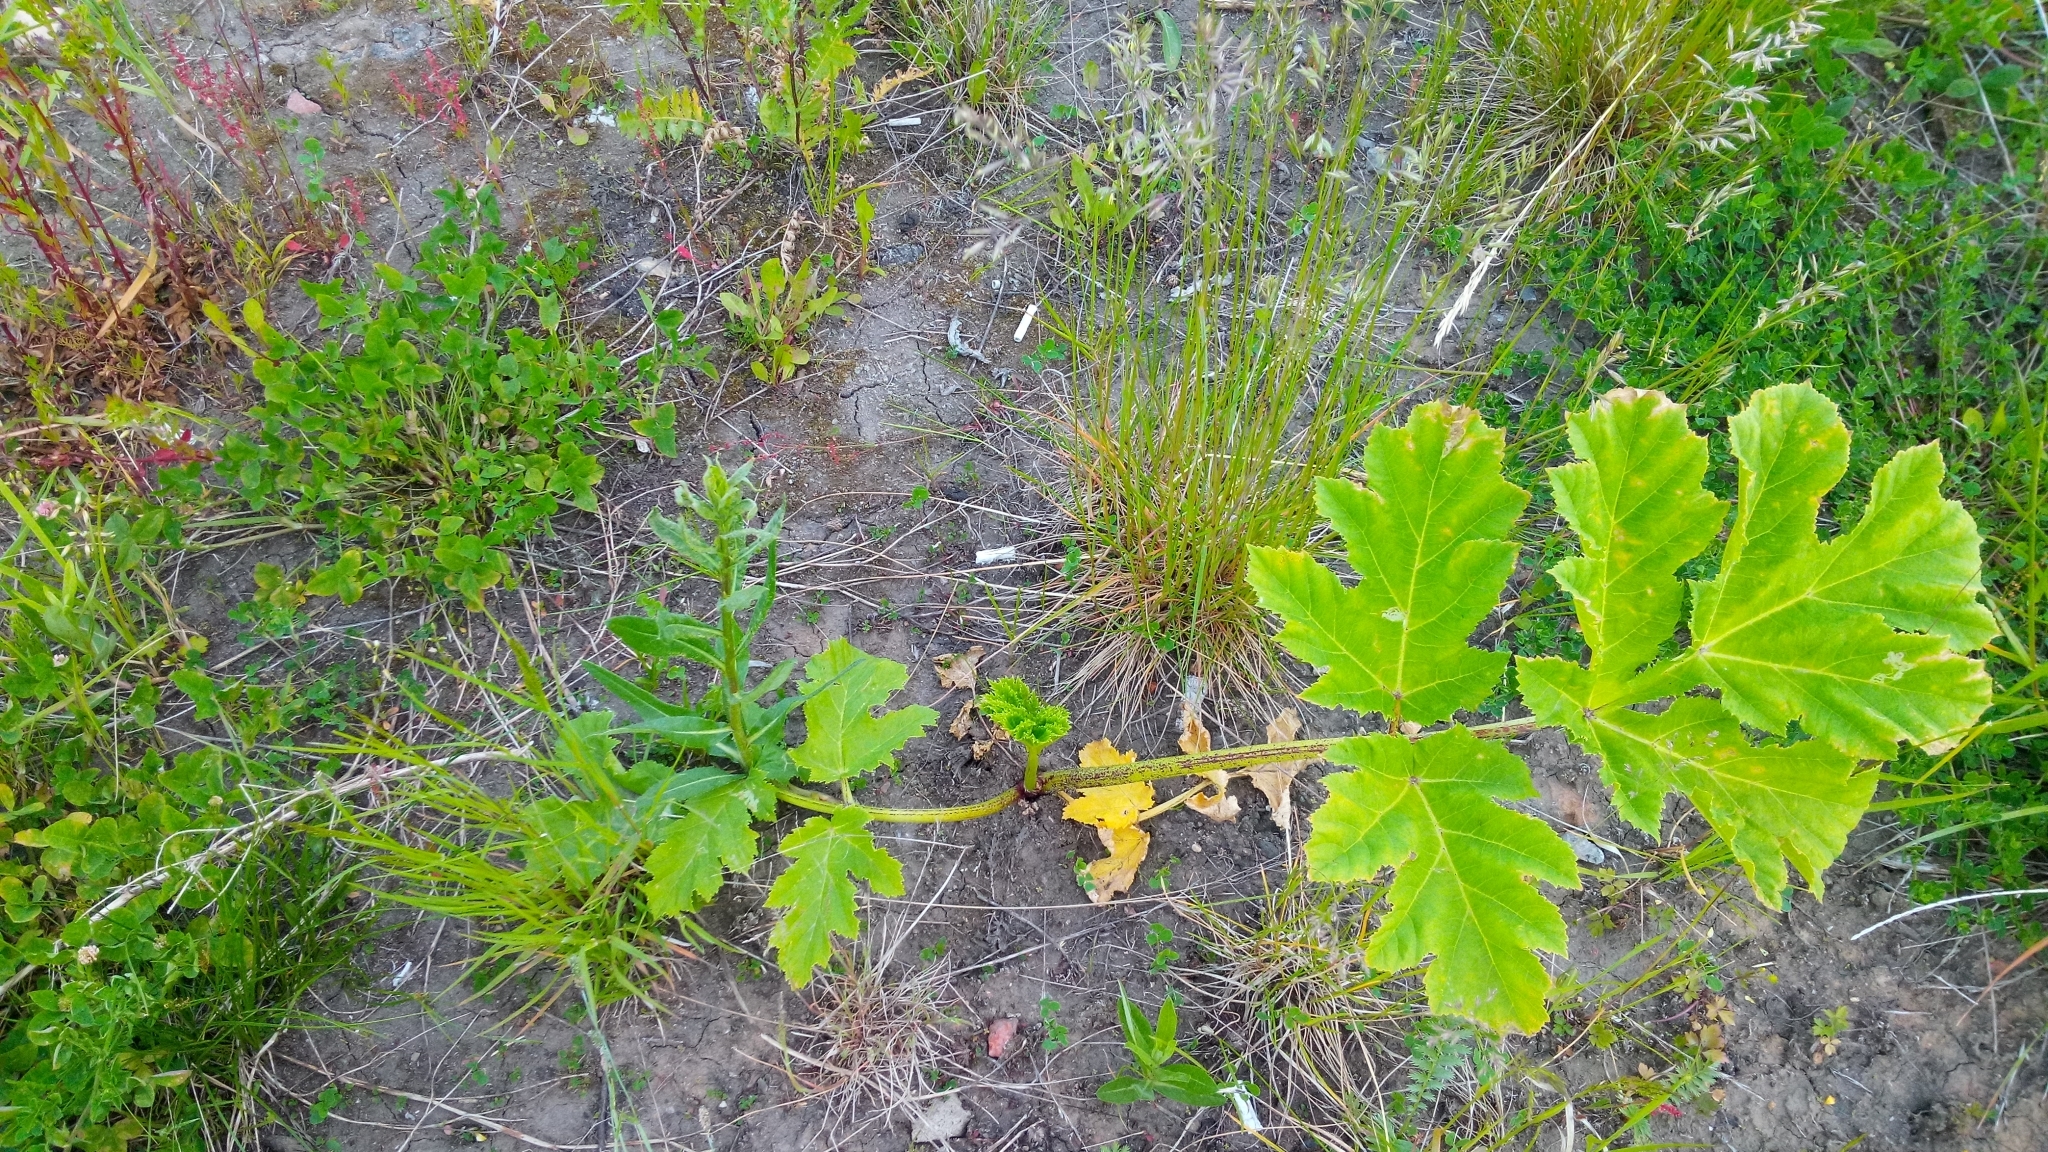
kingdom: Plantae
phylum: Tracheophyta
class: Magnoliopsida
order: Apiales
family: Apiaceae
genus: Heracleum
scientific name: Heracleum sosnowskyi
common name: Sosnowsky's hogweed
